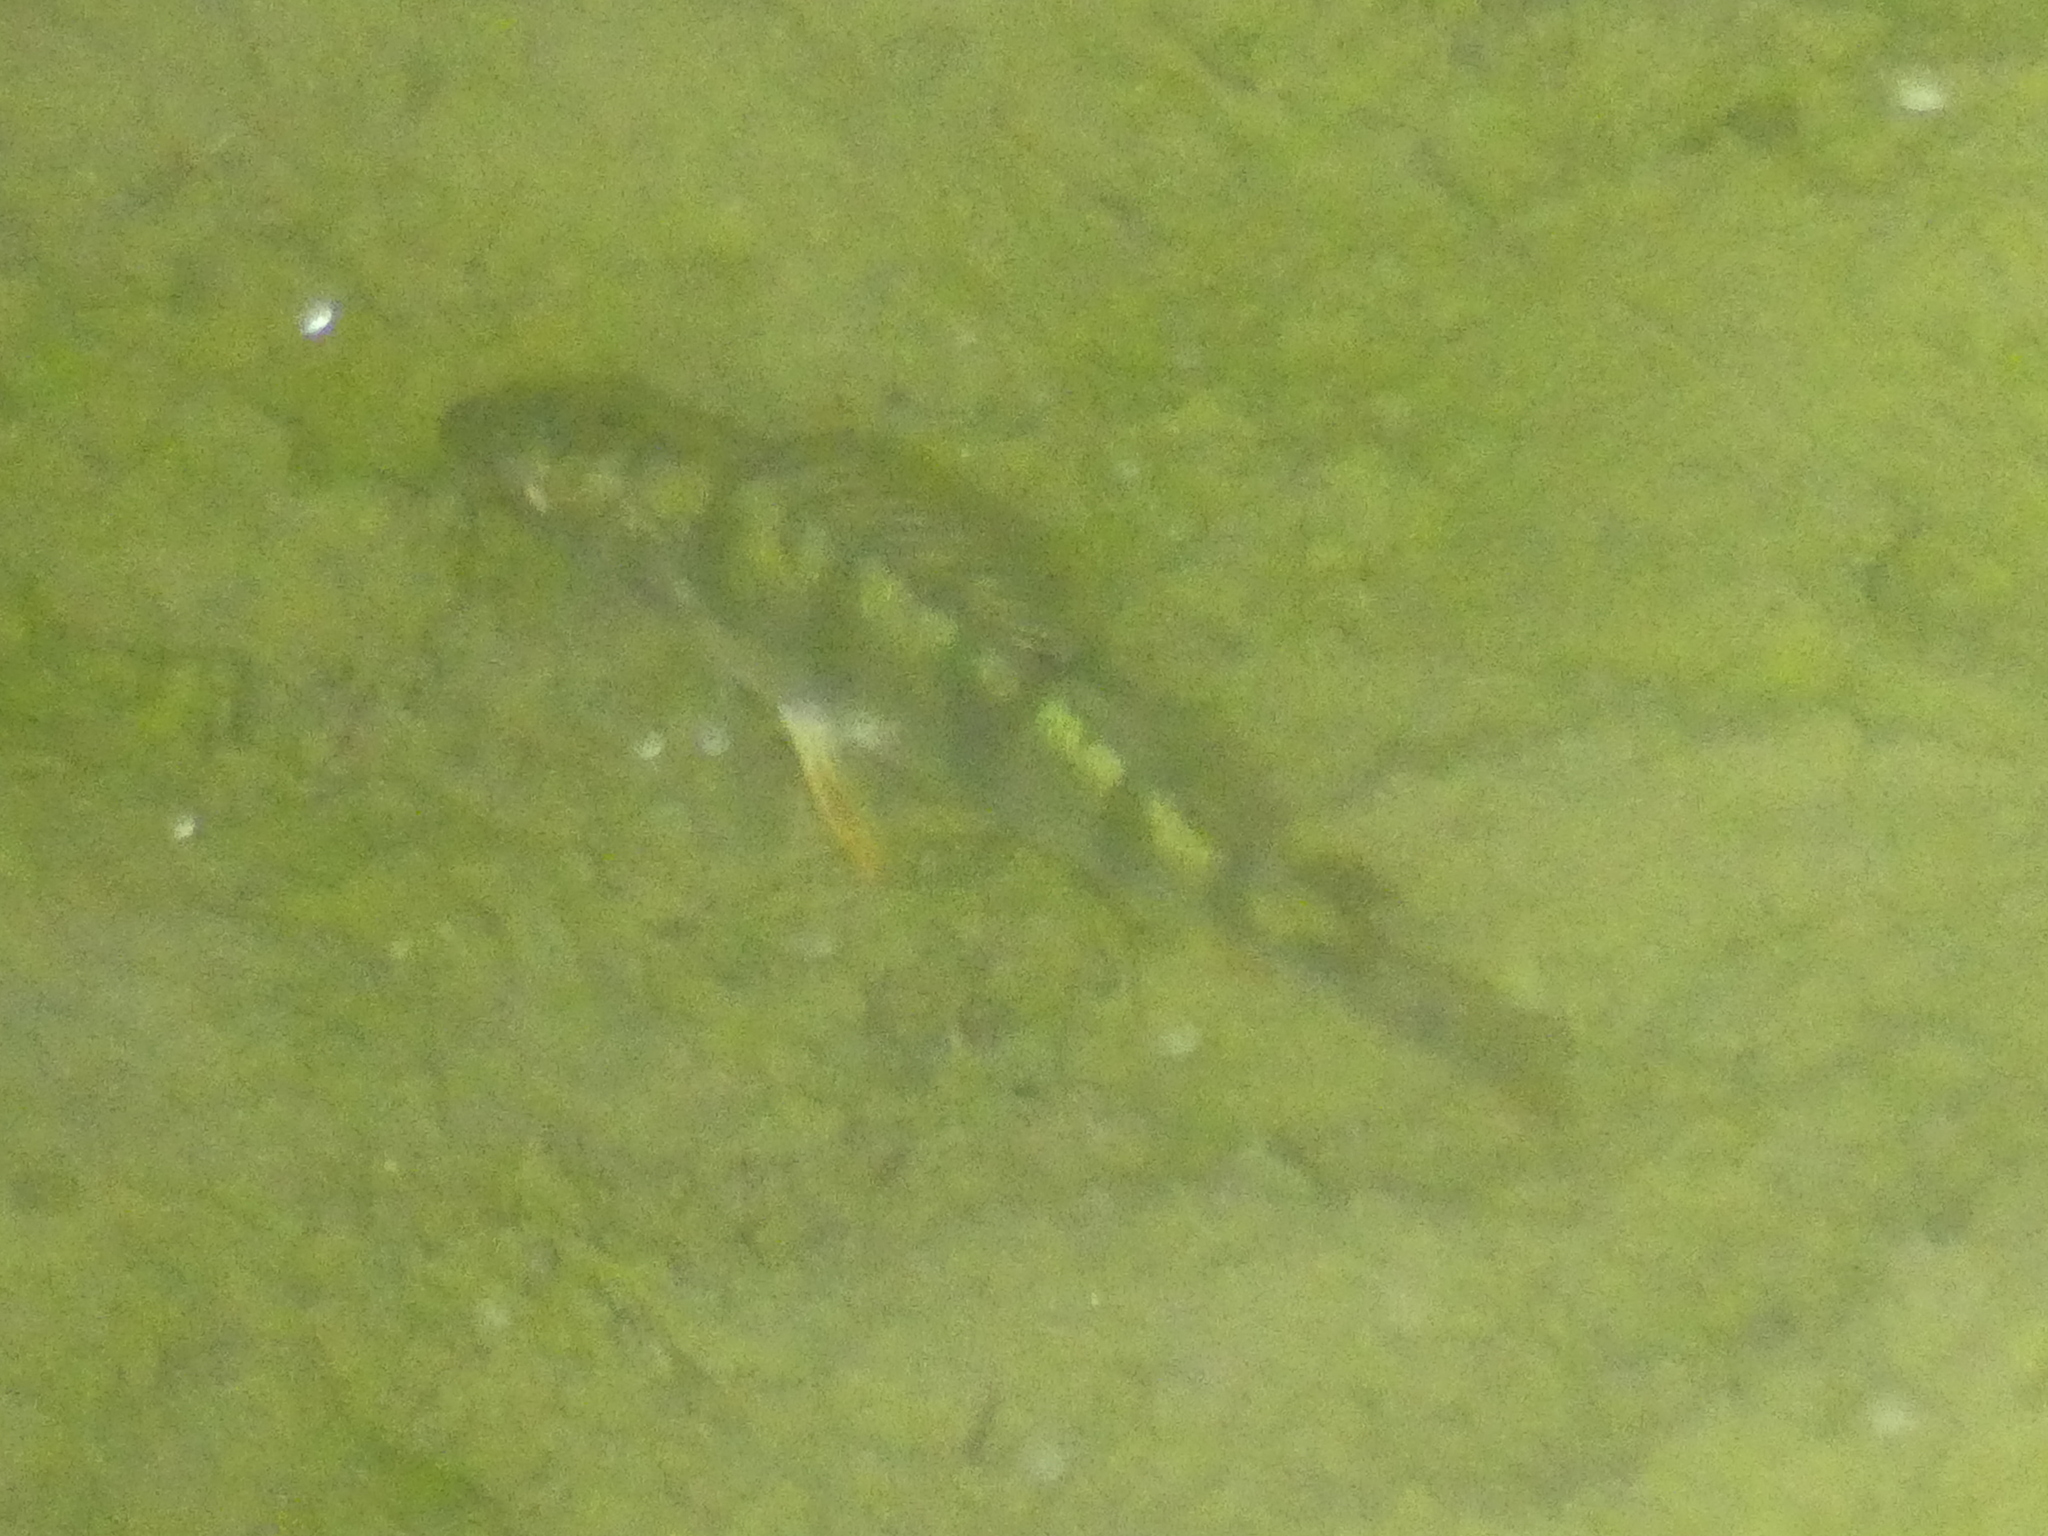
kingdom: Animalia
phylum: Chordata
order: Perciformes
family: Percidae
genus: Perca
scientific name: Perca fluviatilis
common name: Perch
